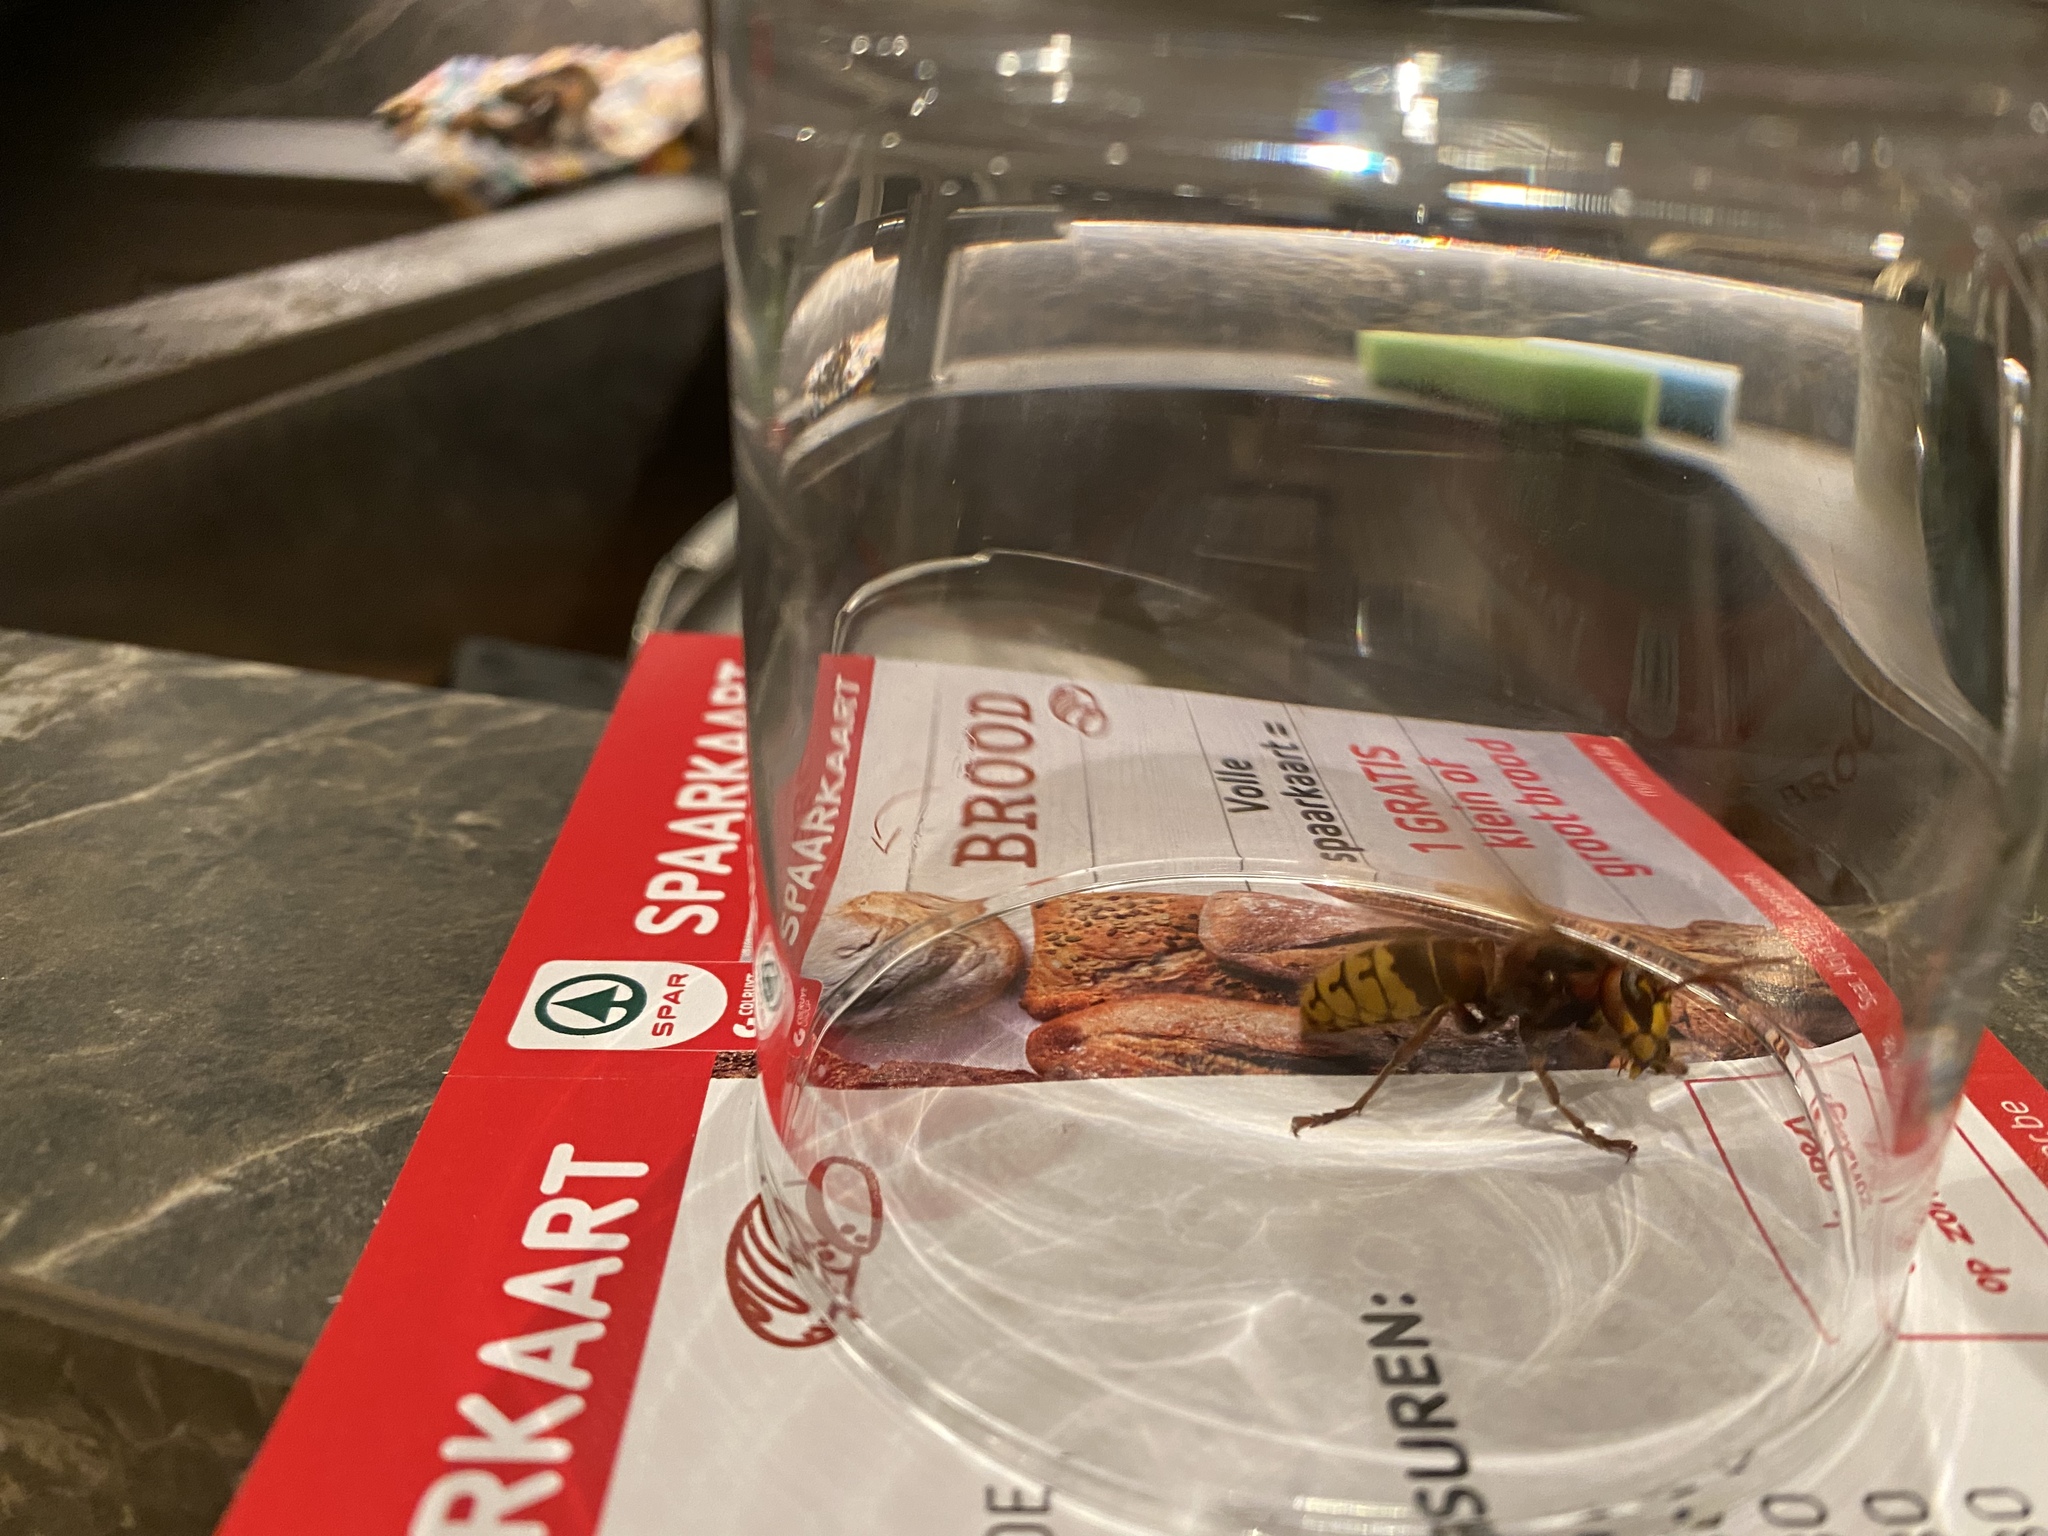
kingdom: Animalia
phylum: Arthropoda
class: Insecta
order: Hymenoptera
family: Vespidae
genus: Vespa
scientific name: Vespa crabro
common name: Hornet
